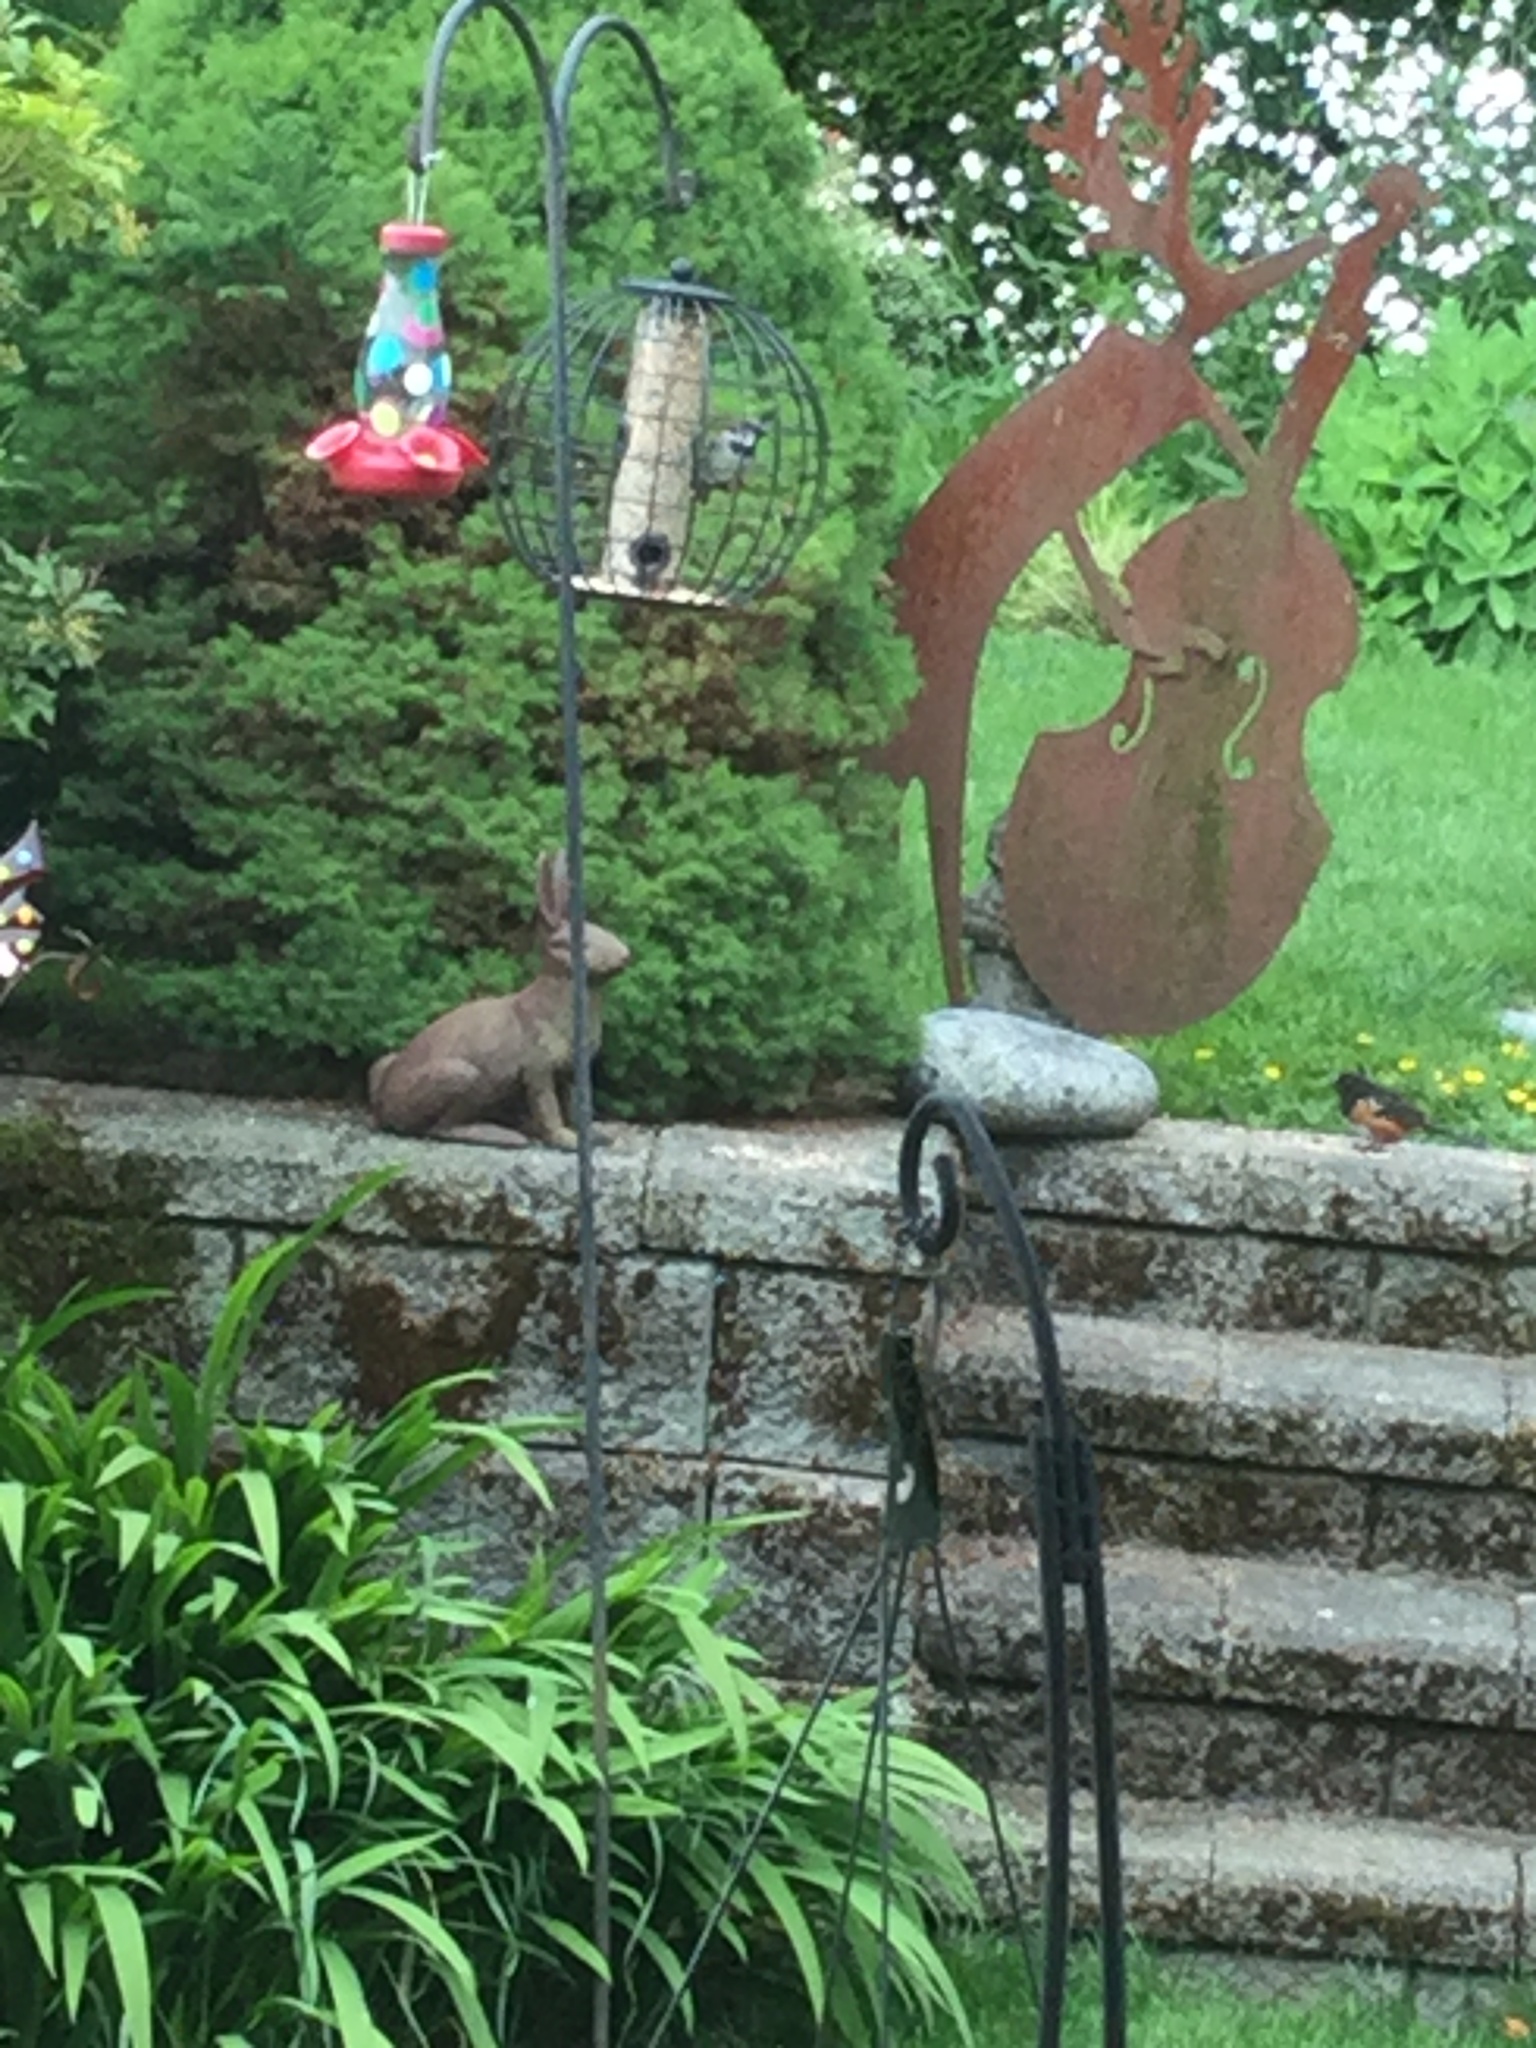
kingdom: Animalia
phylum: Chordata
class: Aves
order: Passeriformes
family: Passeridae
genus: Passer
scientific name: Passer domesticus
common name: House sparrow
